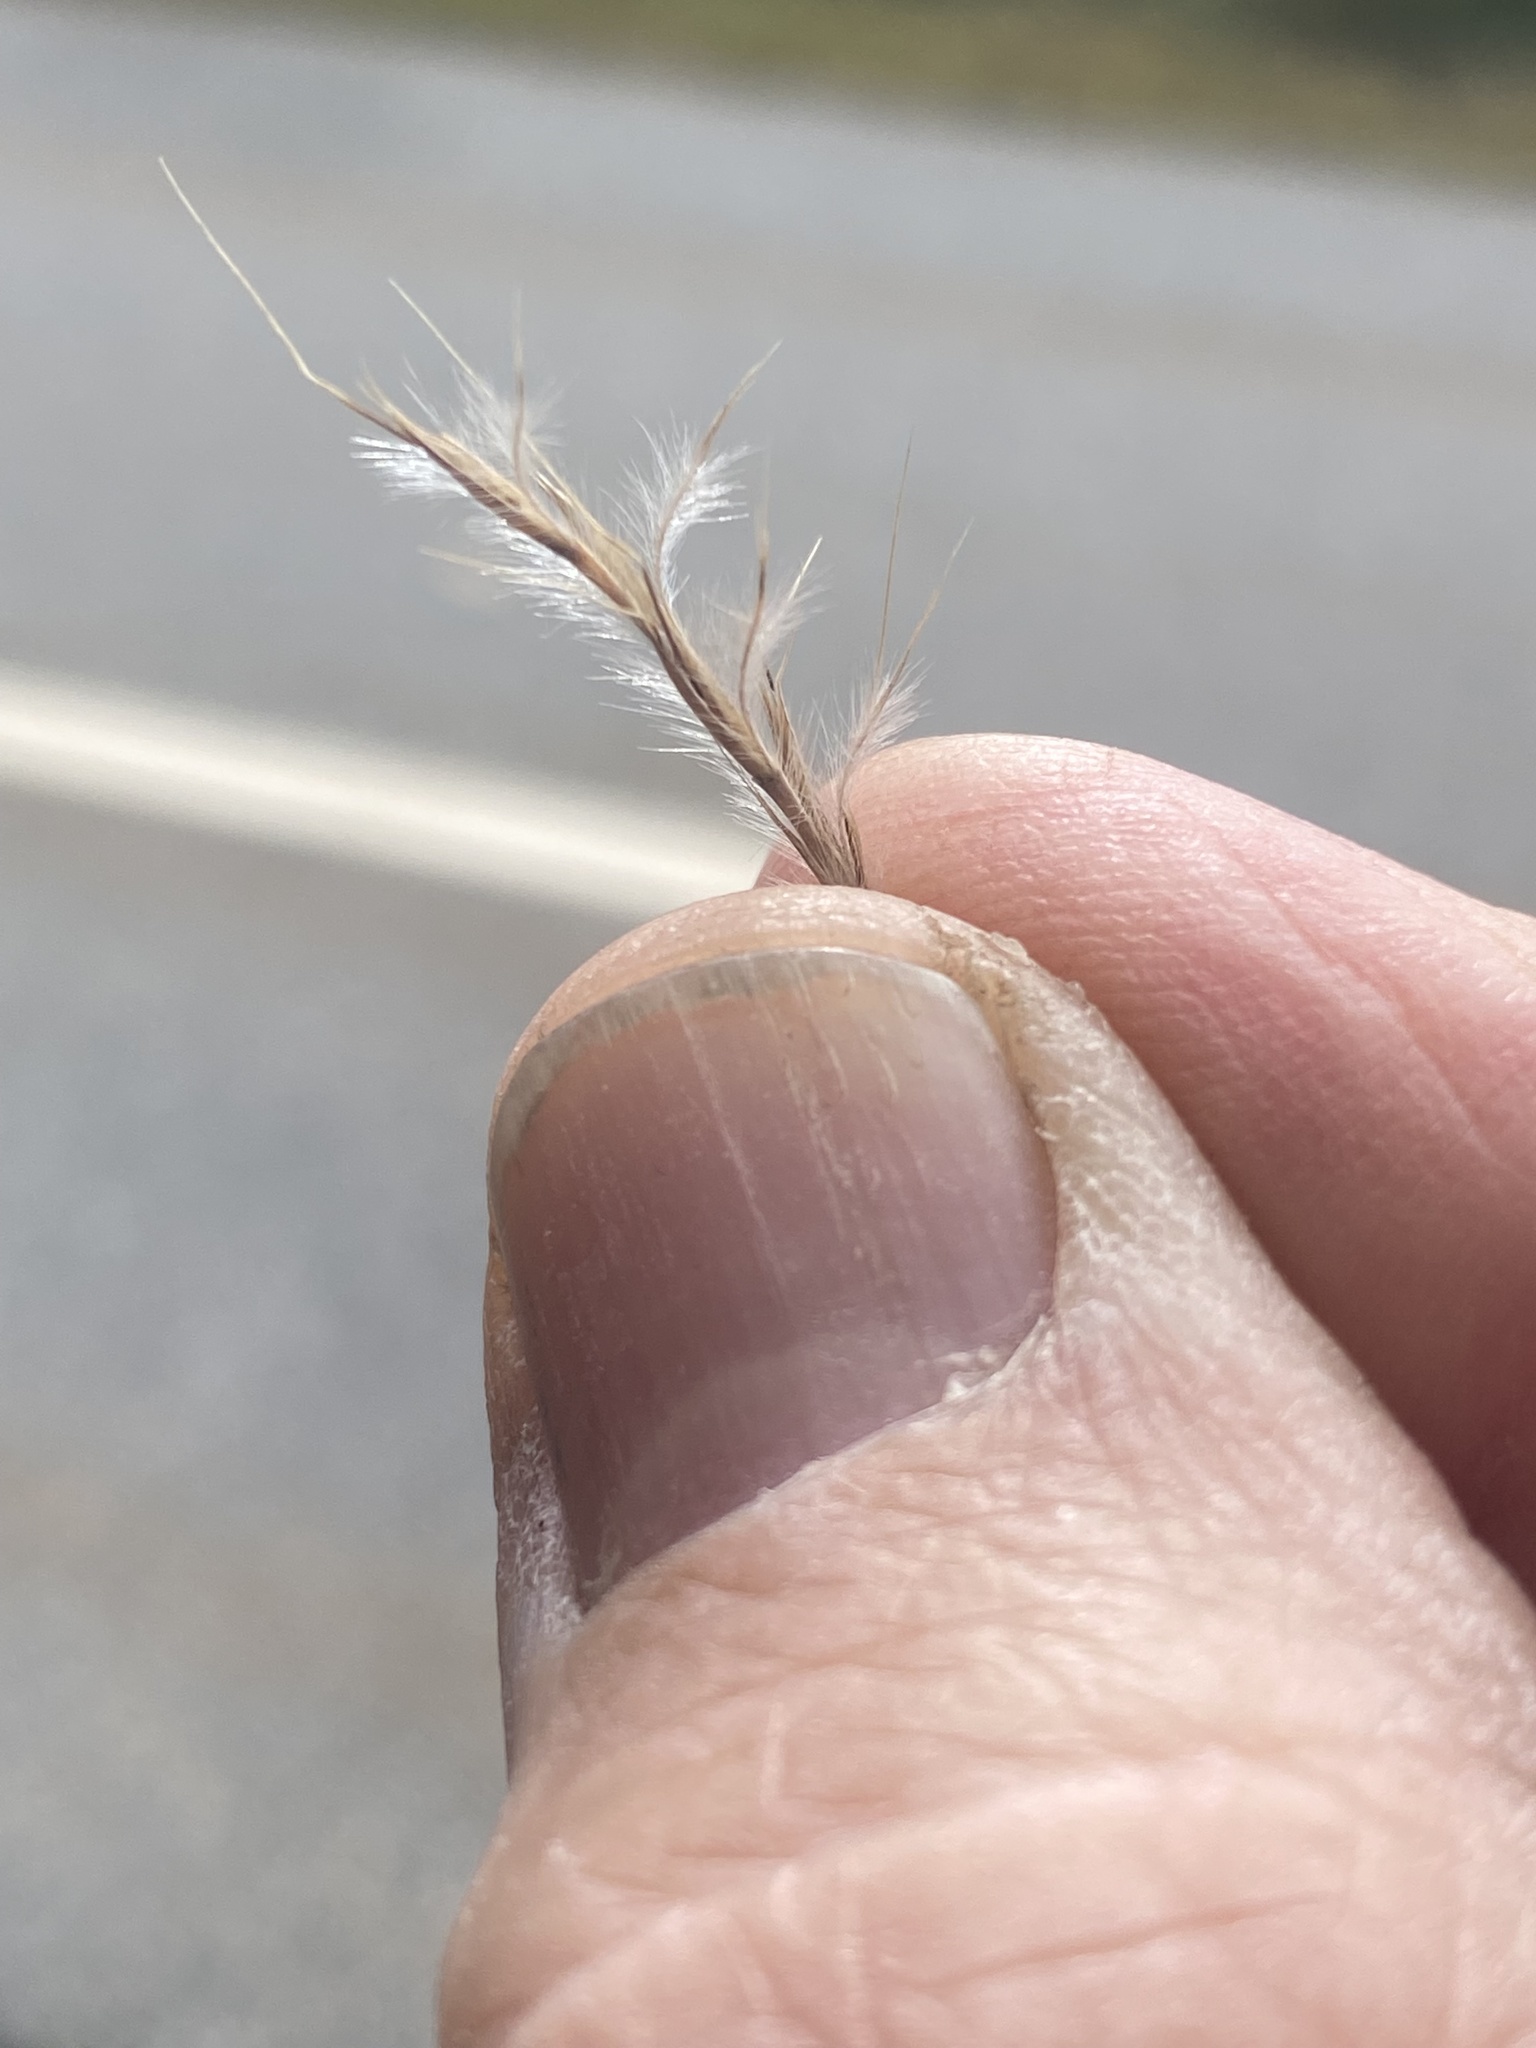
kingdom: Plantae
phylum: Tracheophyta
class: Liliopsida
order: Poales
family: Poaceae
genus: Schizachyrium
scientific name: Schizachyrium scoparium
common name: Little bluestem
